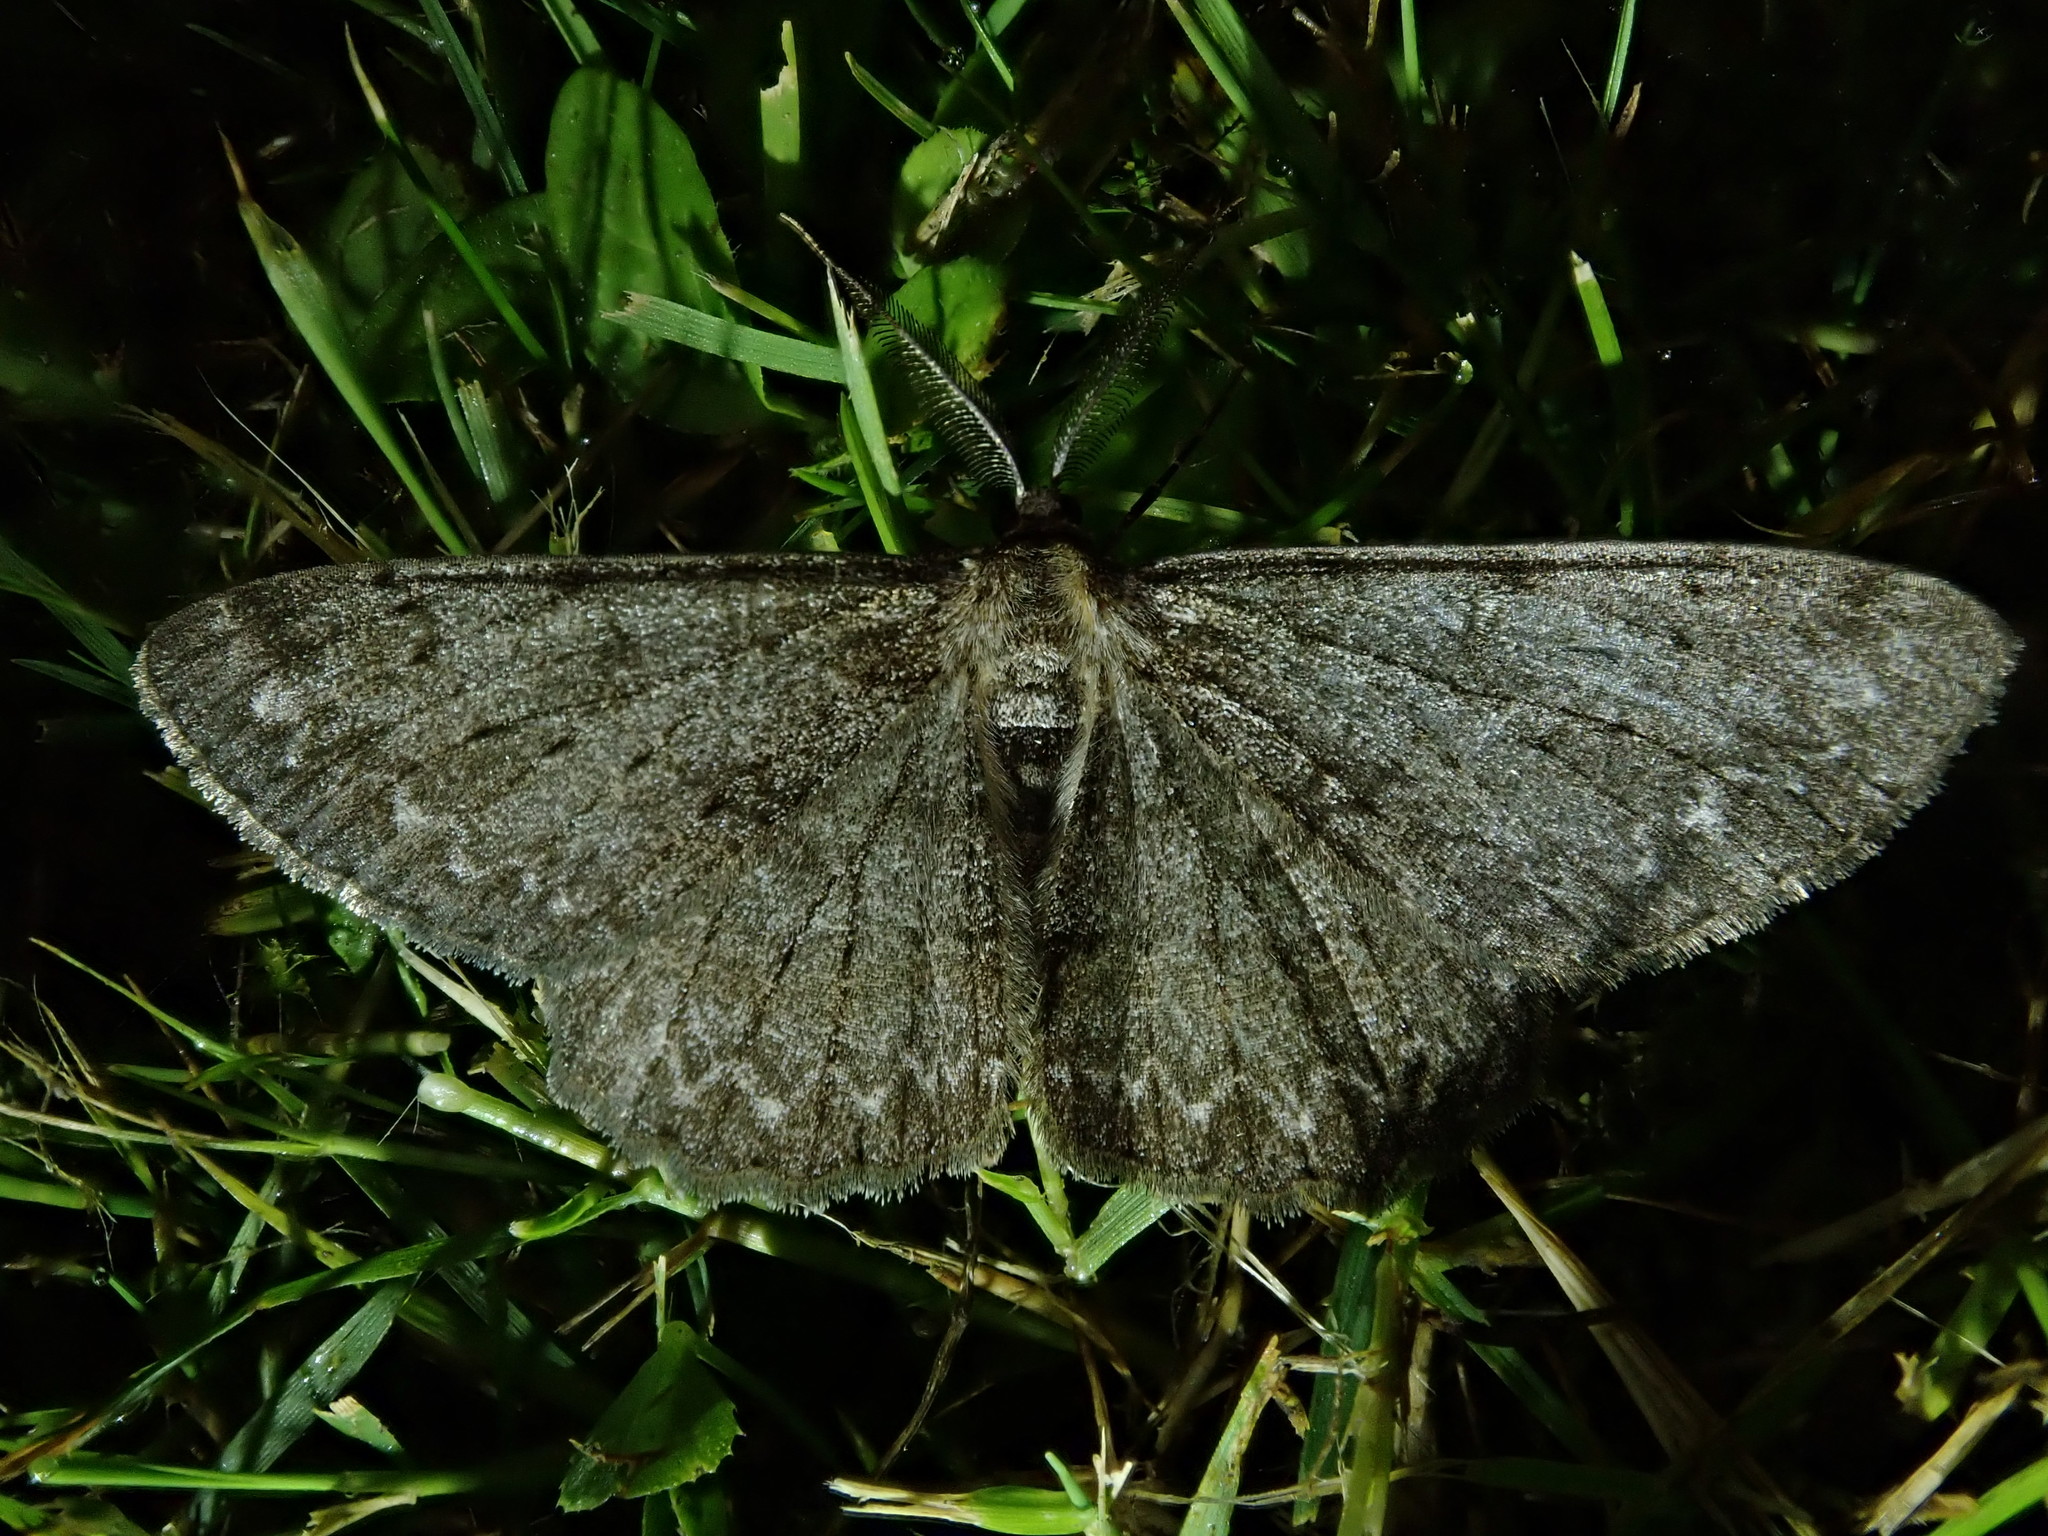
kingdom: Animalia
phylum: Arthropoda
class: Insecta
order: Lepidoptera
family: Geometridae
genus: Hypomecis
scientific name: Hypomecis punctinalis
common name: Pale oak beauty
